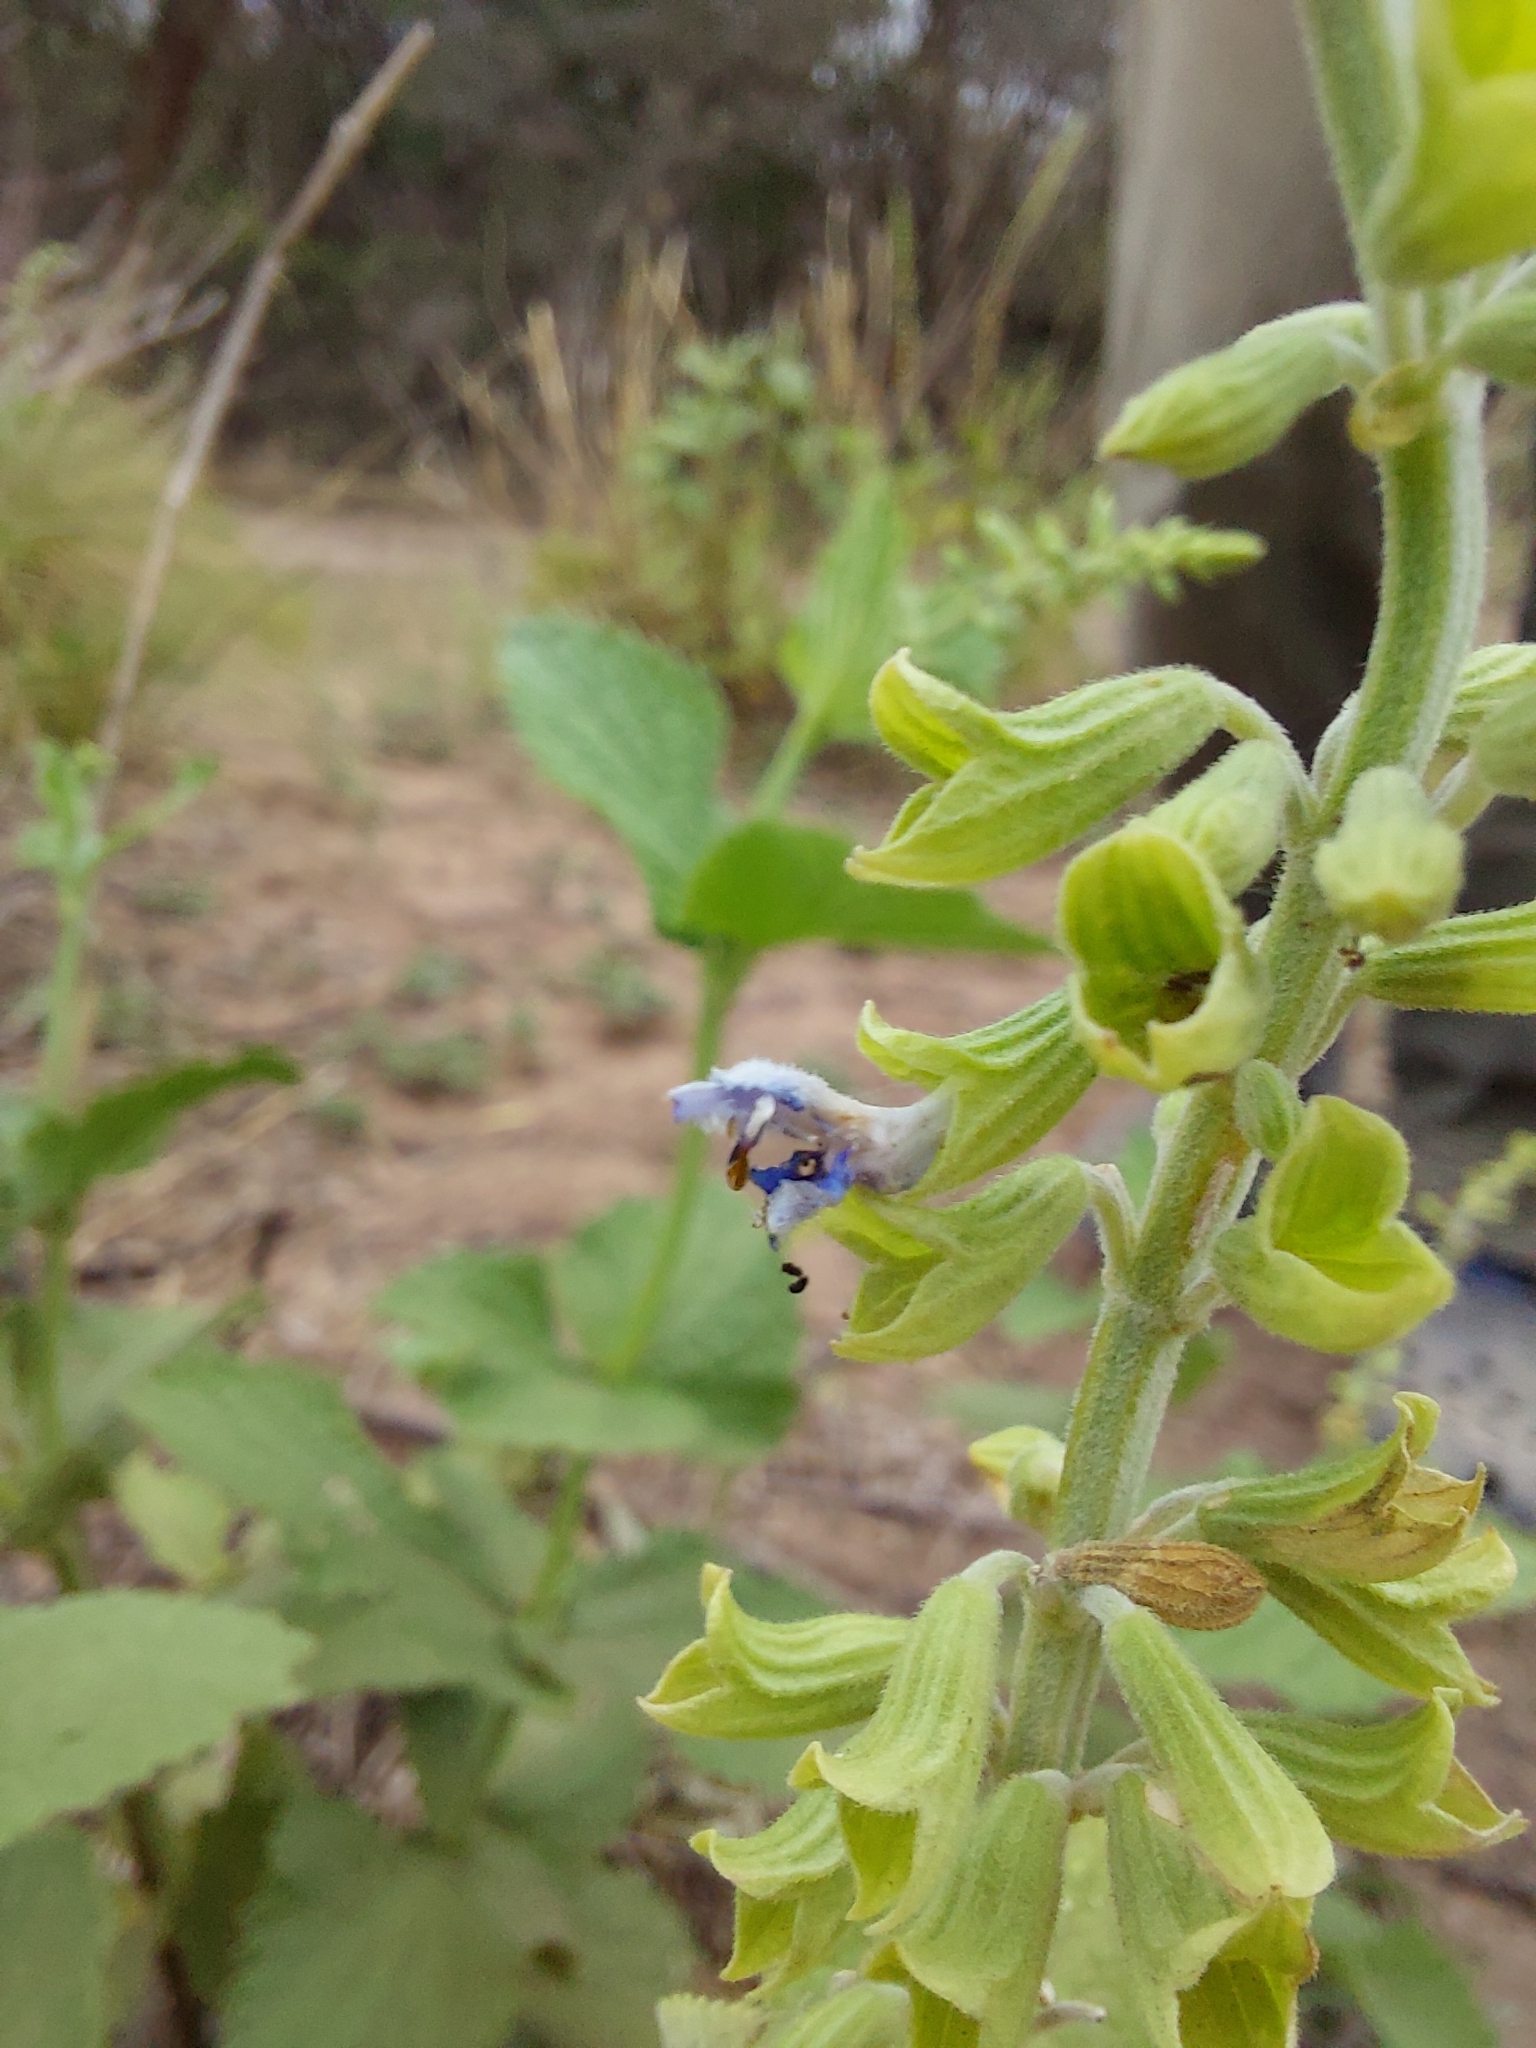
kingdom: Plantae
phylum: Tracheophyta
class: Magnoliopsida
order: Lamiales
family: Lamiaceae
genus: Salvia
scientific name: Salvia cardiophylla
